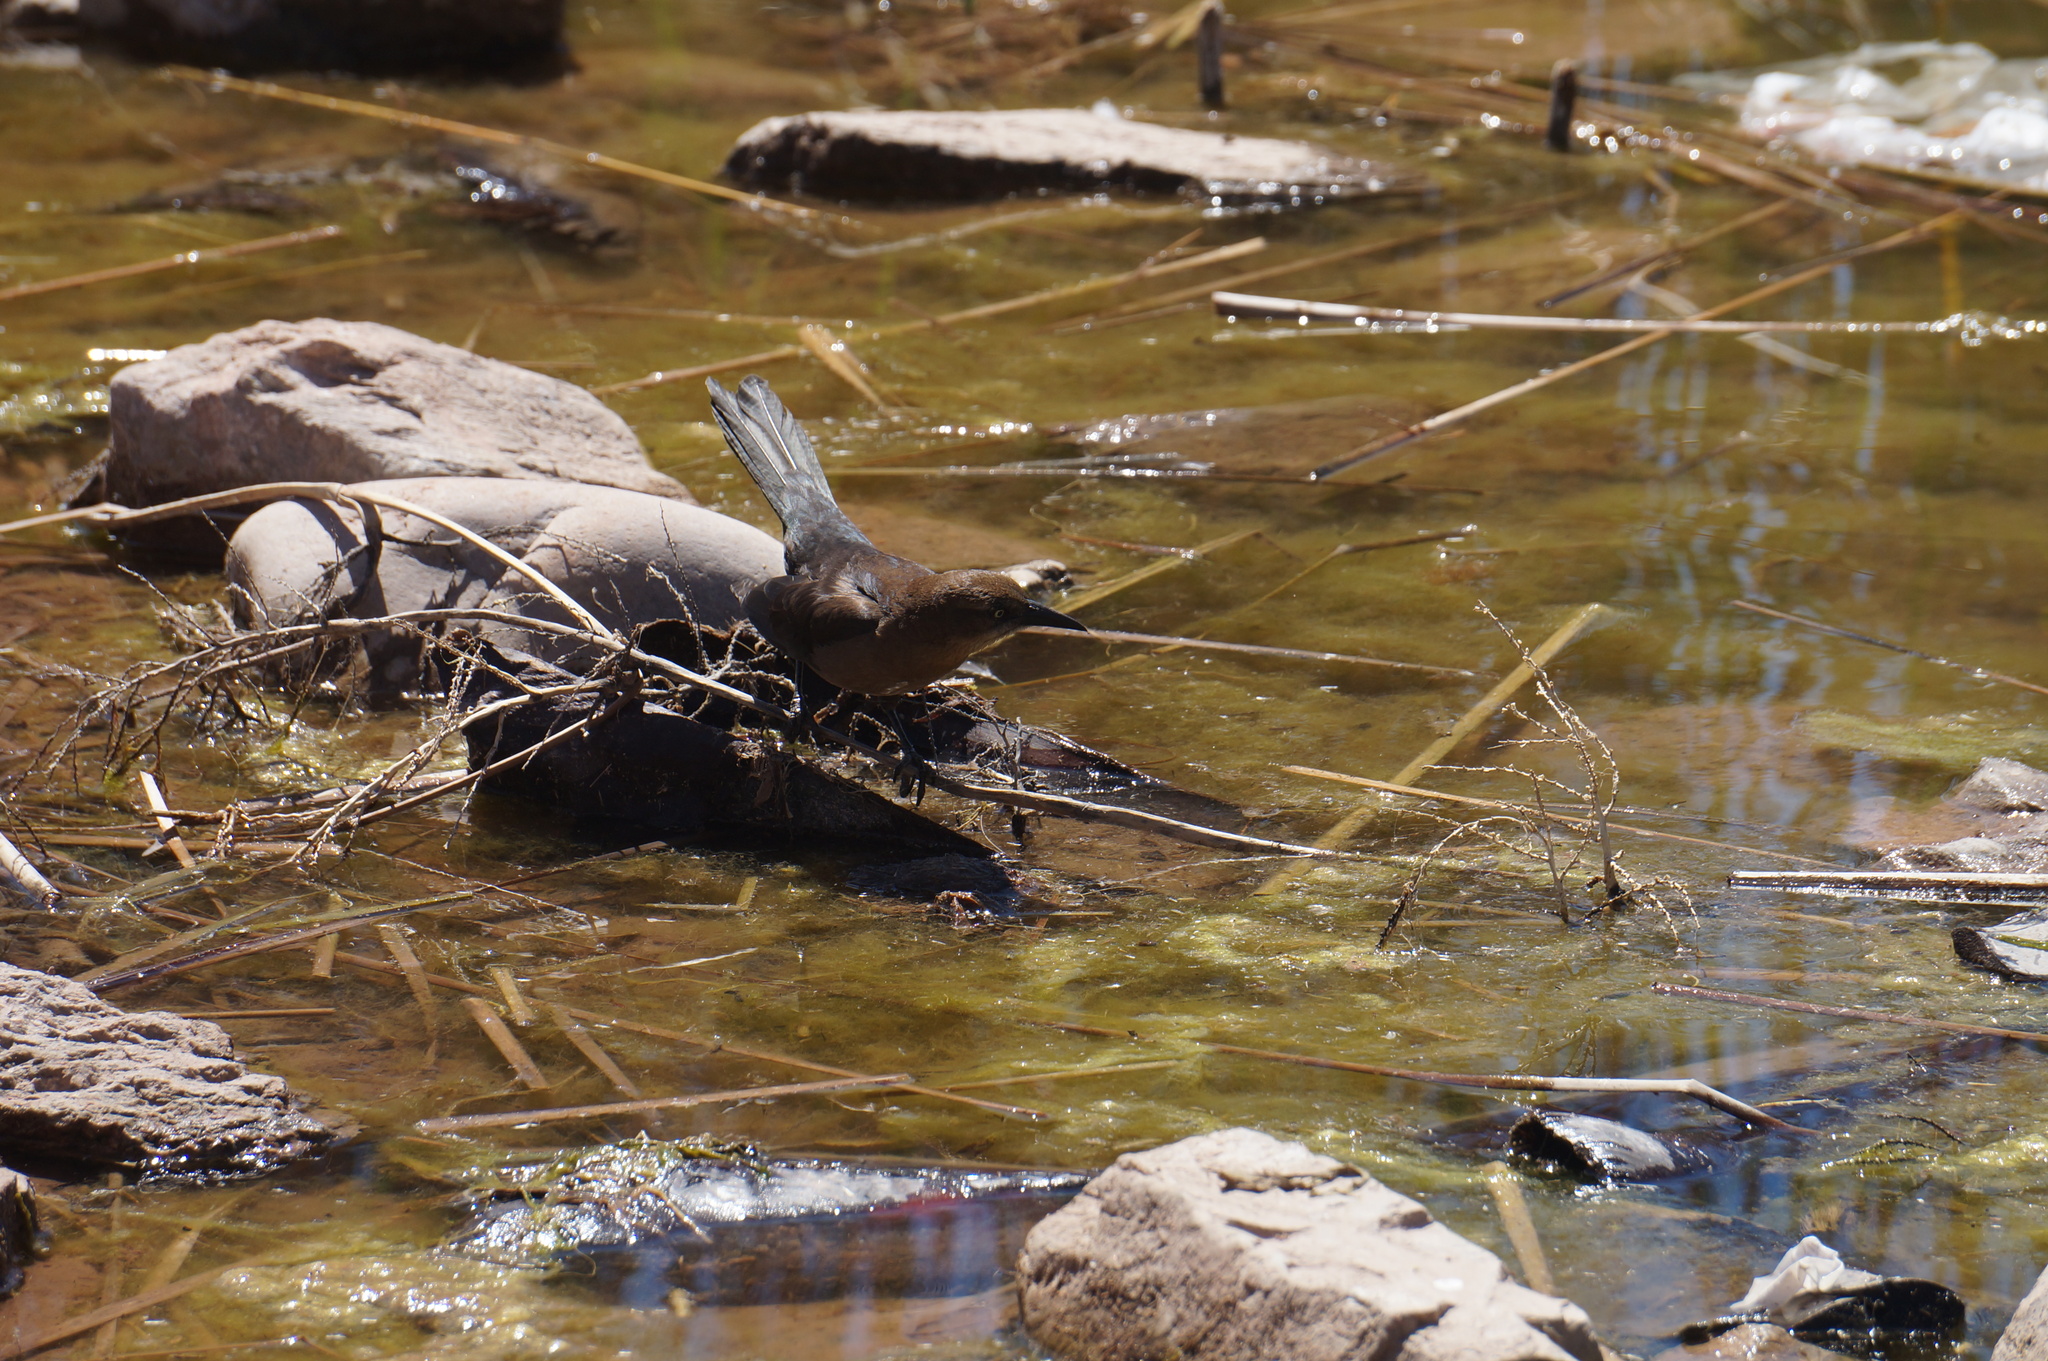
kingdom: Animalia
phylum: Chordata
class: Aves
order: Passeriformes
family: Icteridae
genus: Quiscalus
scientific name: Quiscalus mexicanus
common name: Great-tailed grackle
